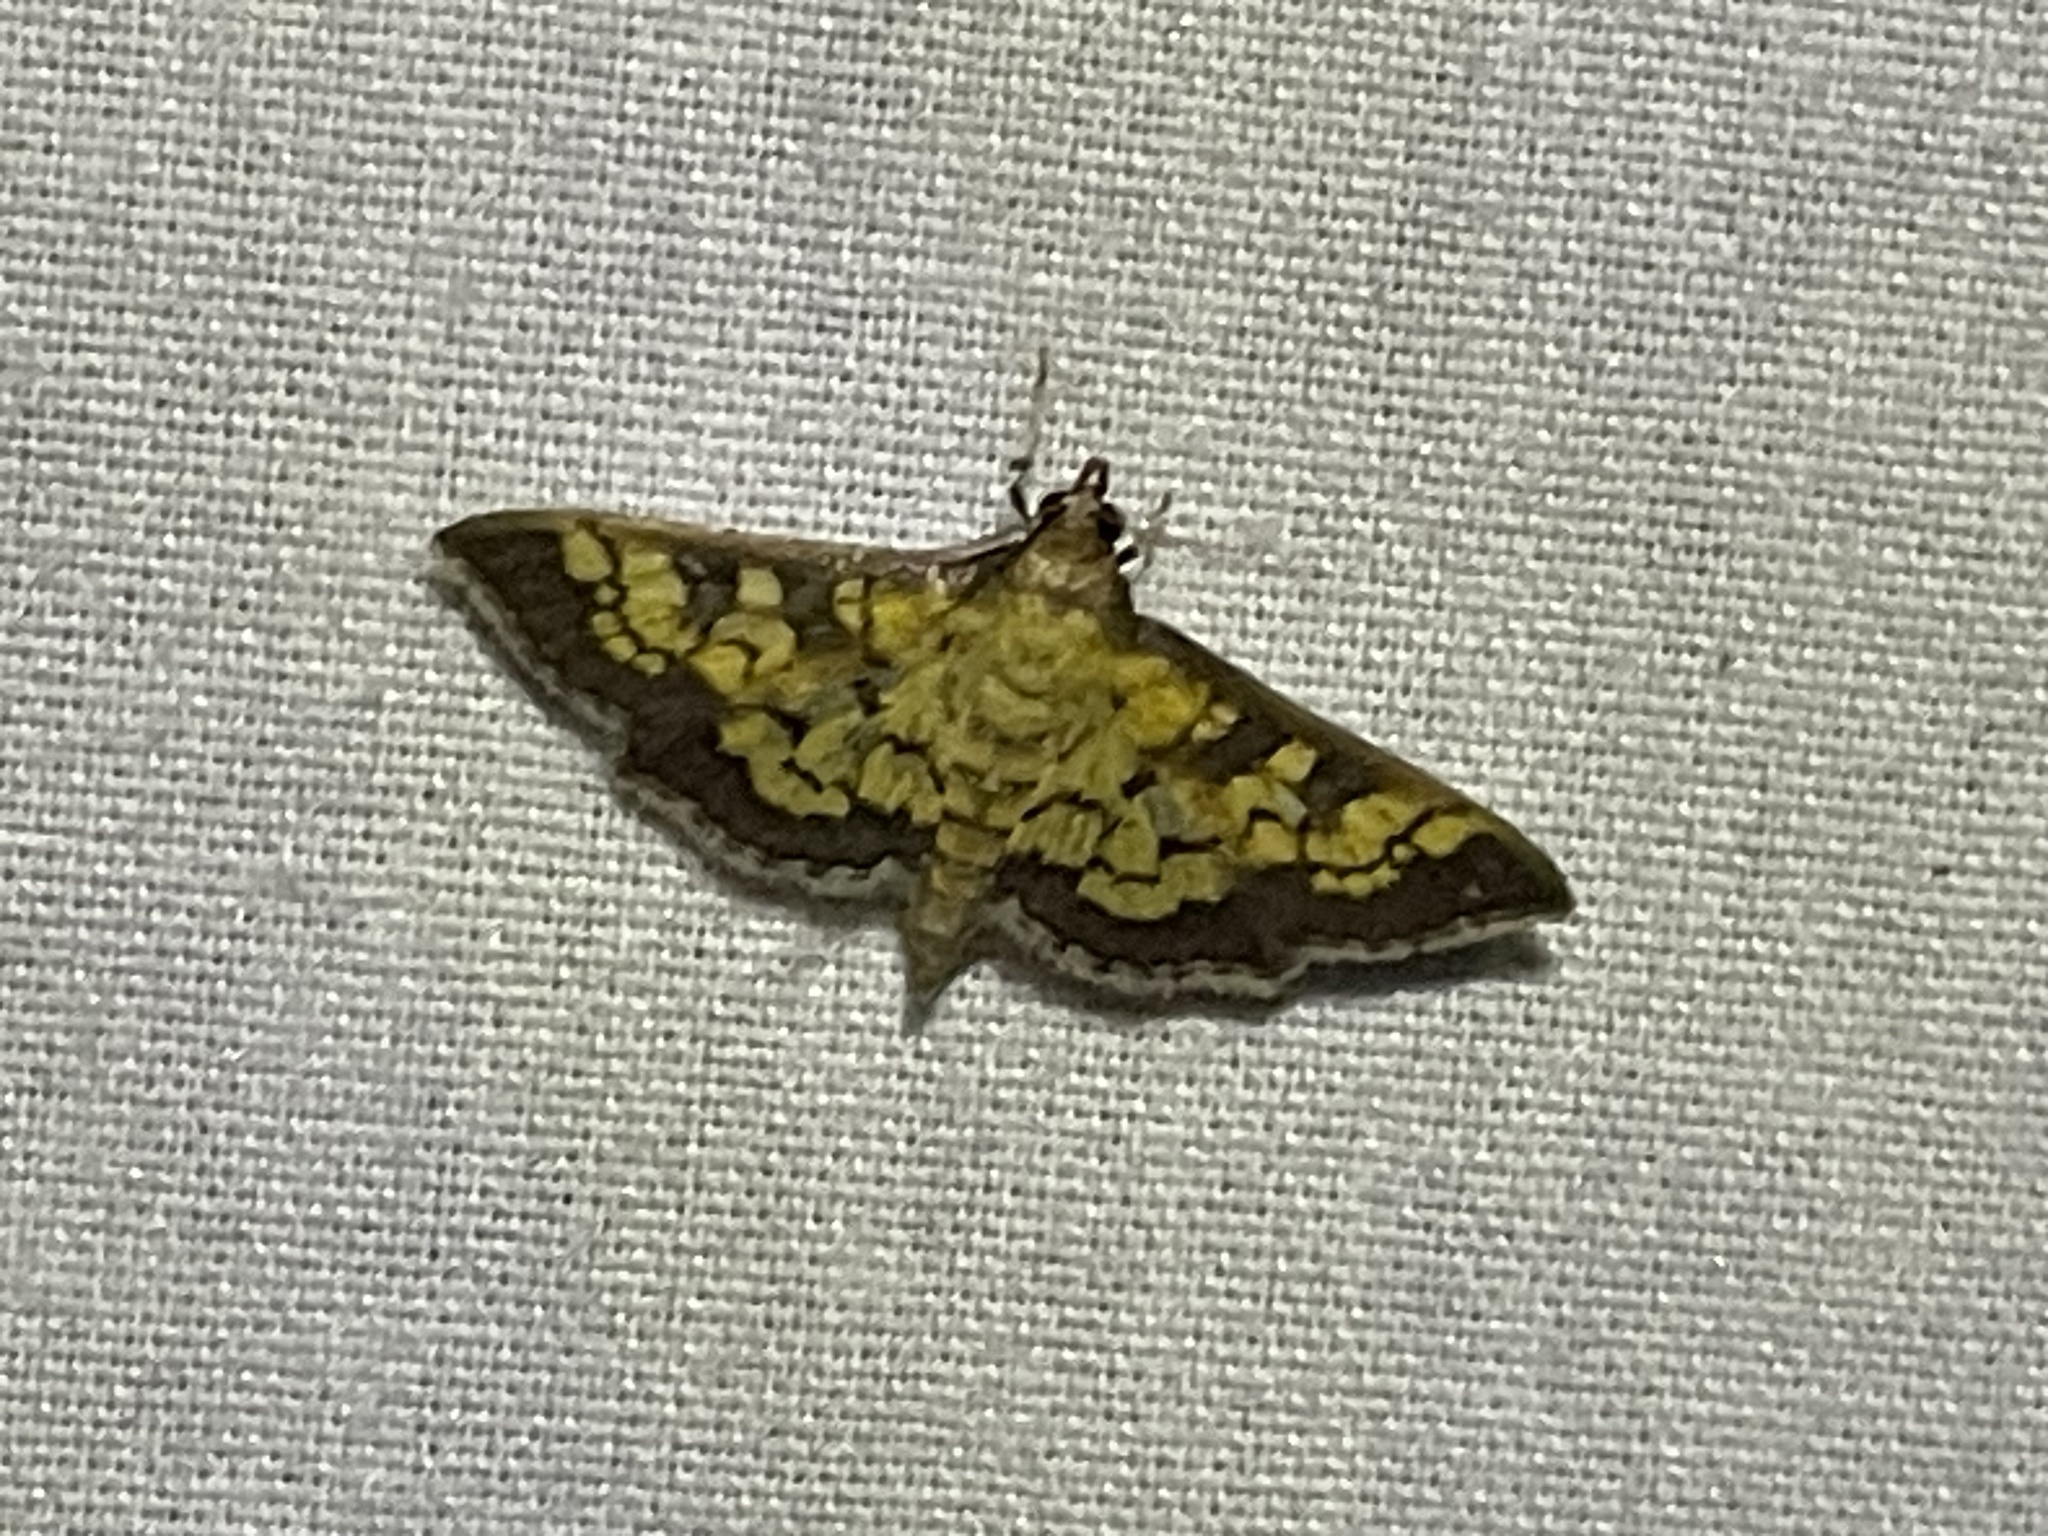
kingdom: Animalia
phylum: Arthropoda
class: Insecta
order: Lepidoptera
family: Crambidae
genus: Epipagis
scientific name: Epipagis adipaloides
